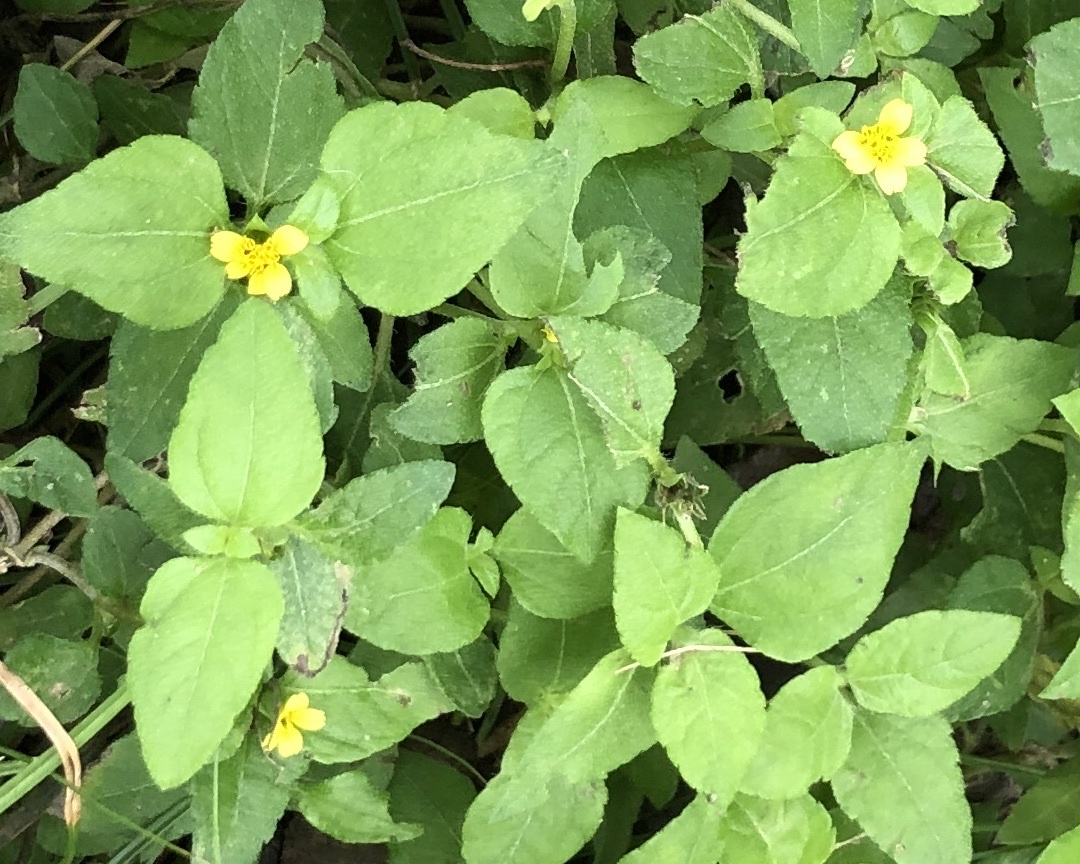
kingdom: Plantae
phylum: Tracheophyta
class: Magnoliopsida
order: Asterales
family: Asteraceae
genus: Calyptocarpus
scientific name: Calyptocarpus vialis
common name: Straggler daisy
